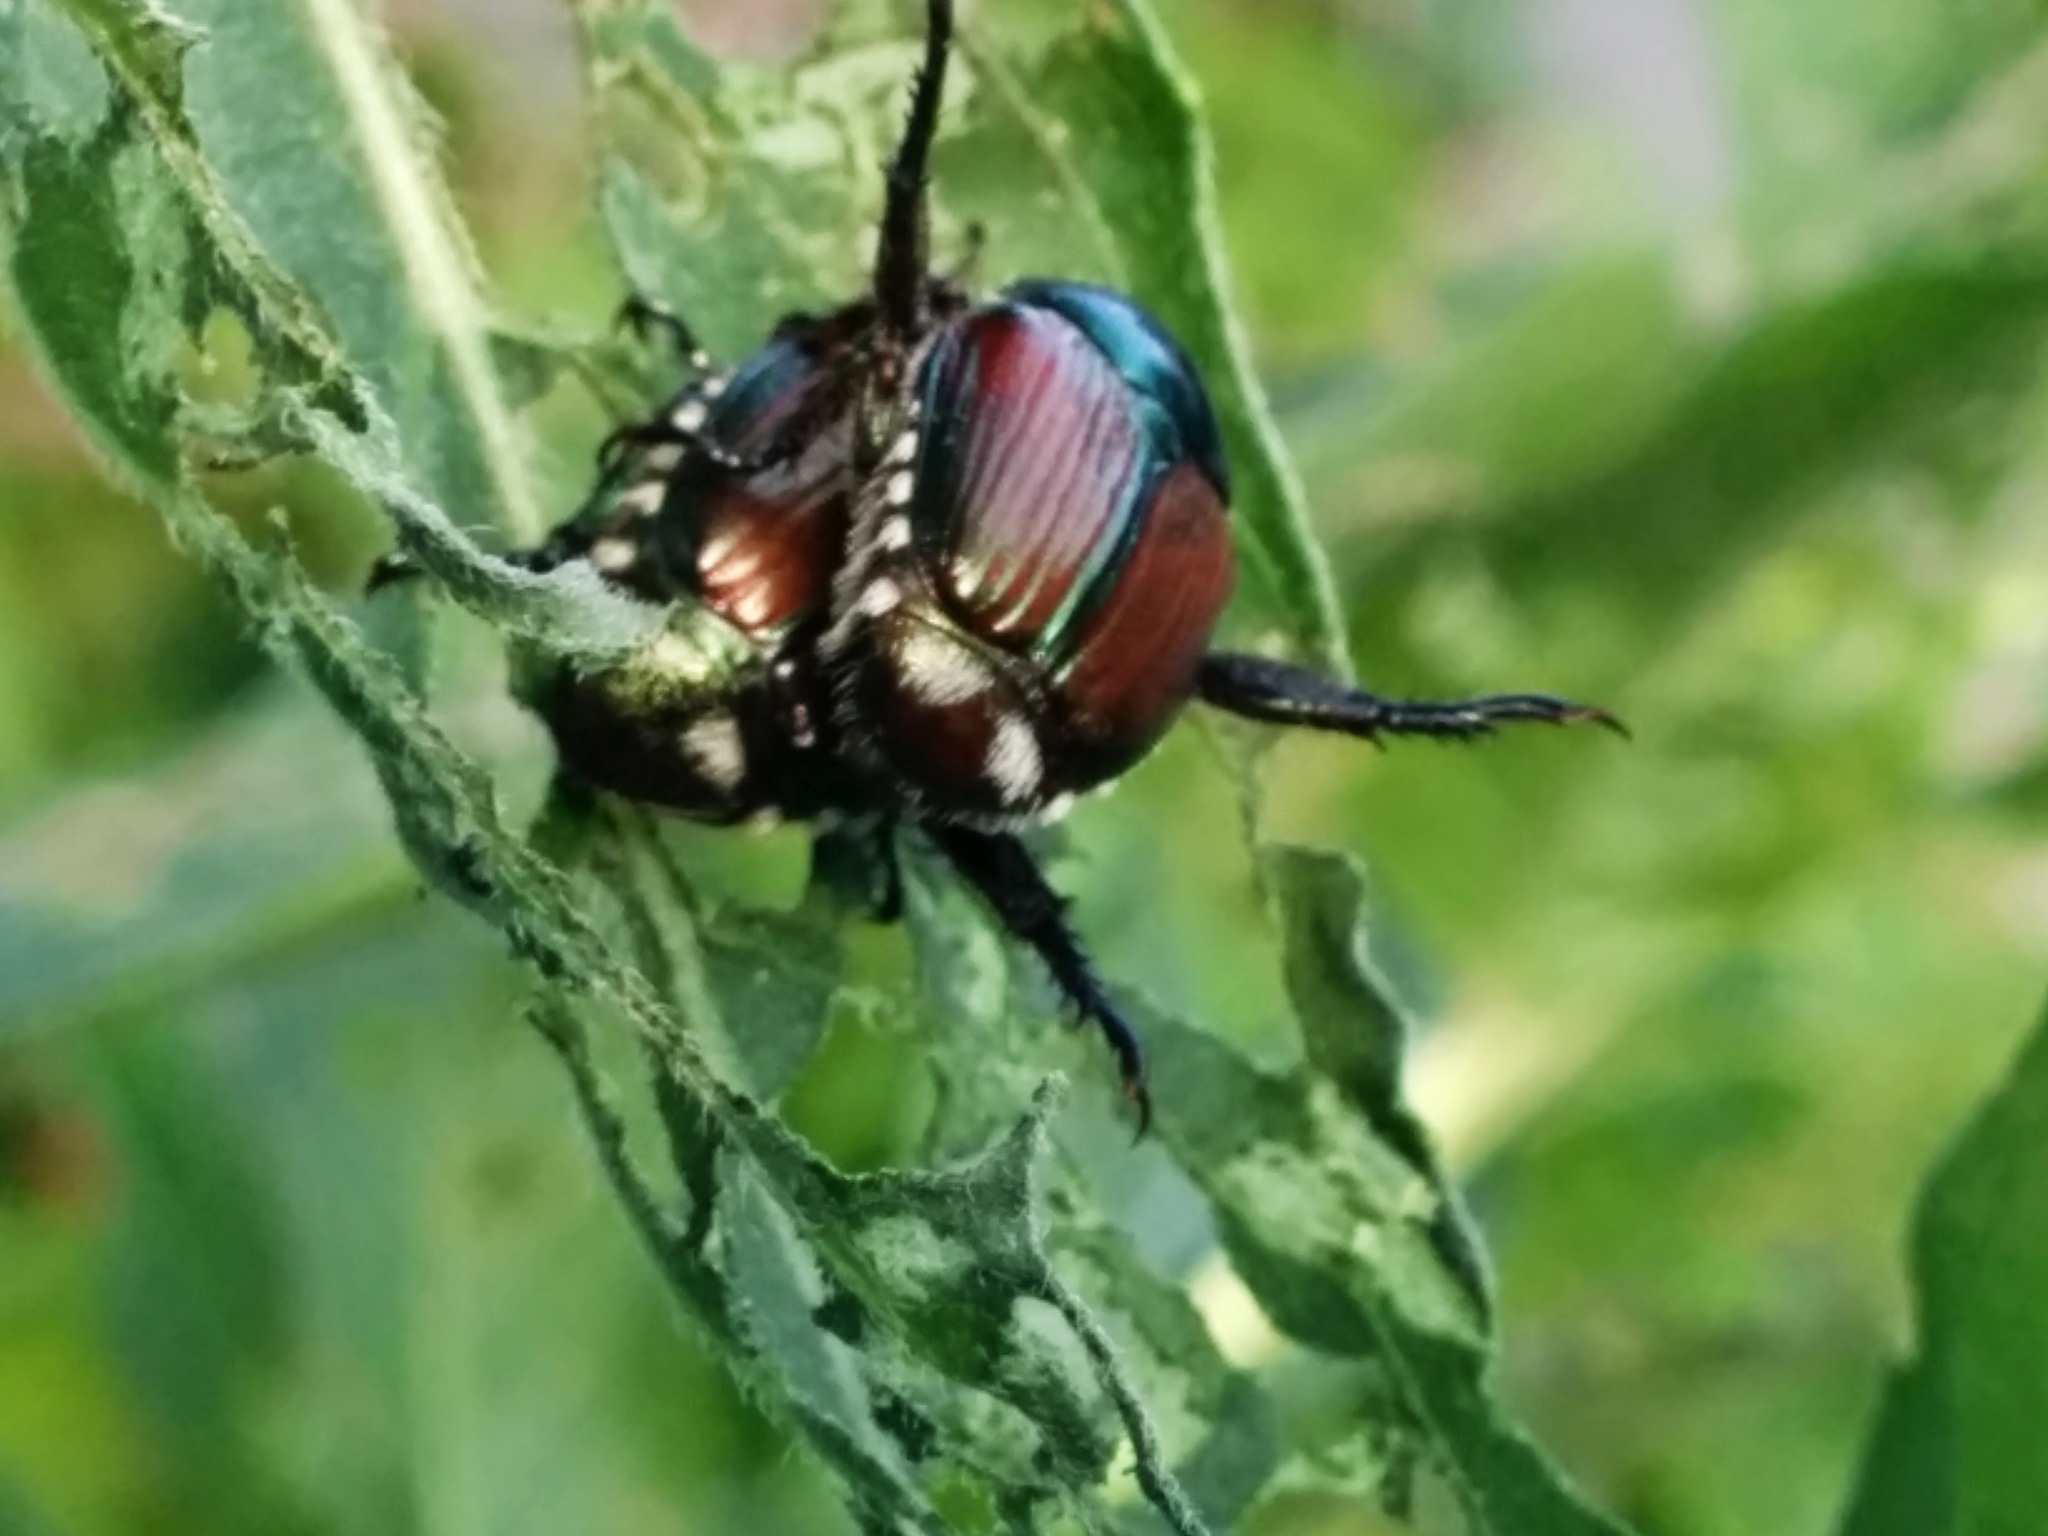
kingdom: Animalia
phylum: Arthropoda
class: Insecta
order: Coleoptera
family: Scarabaeidae
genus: Popillia
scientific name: Popillia japonica
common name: Japanese beetle
